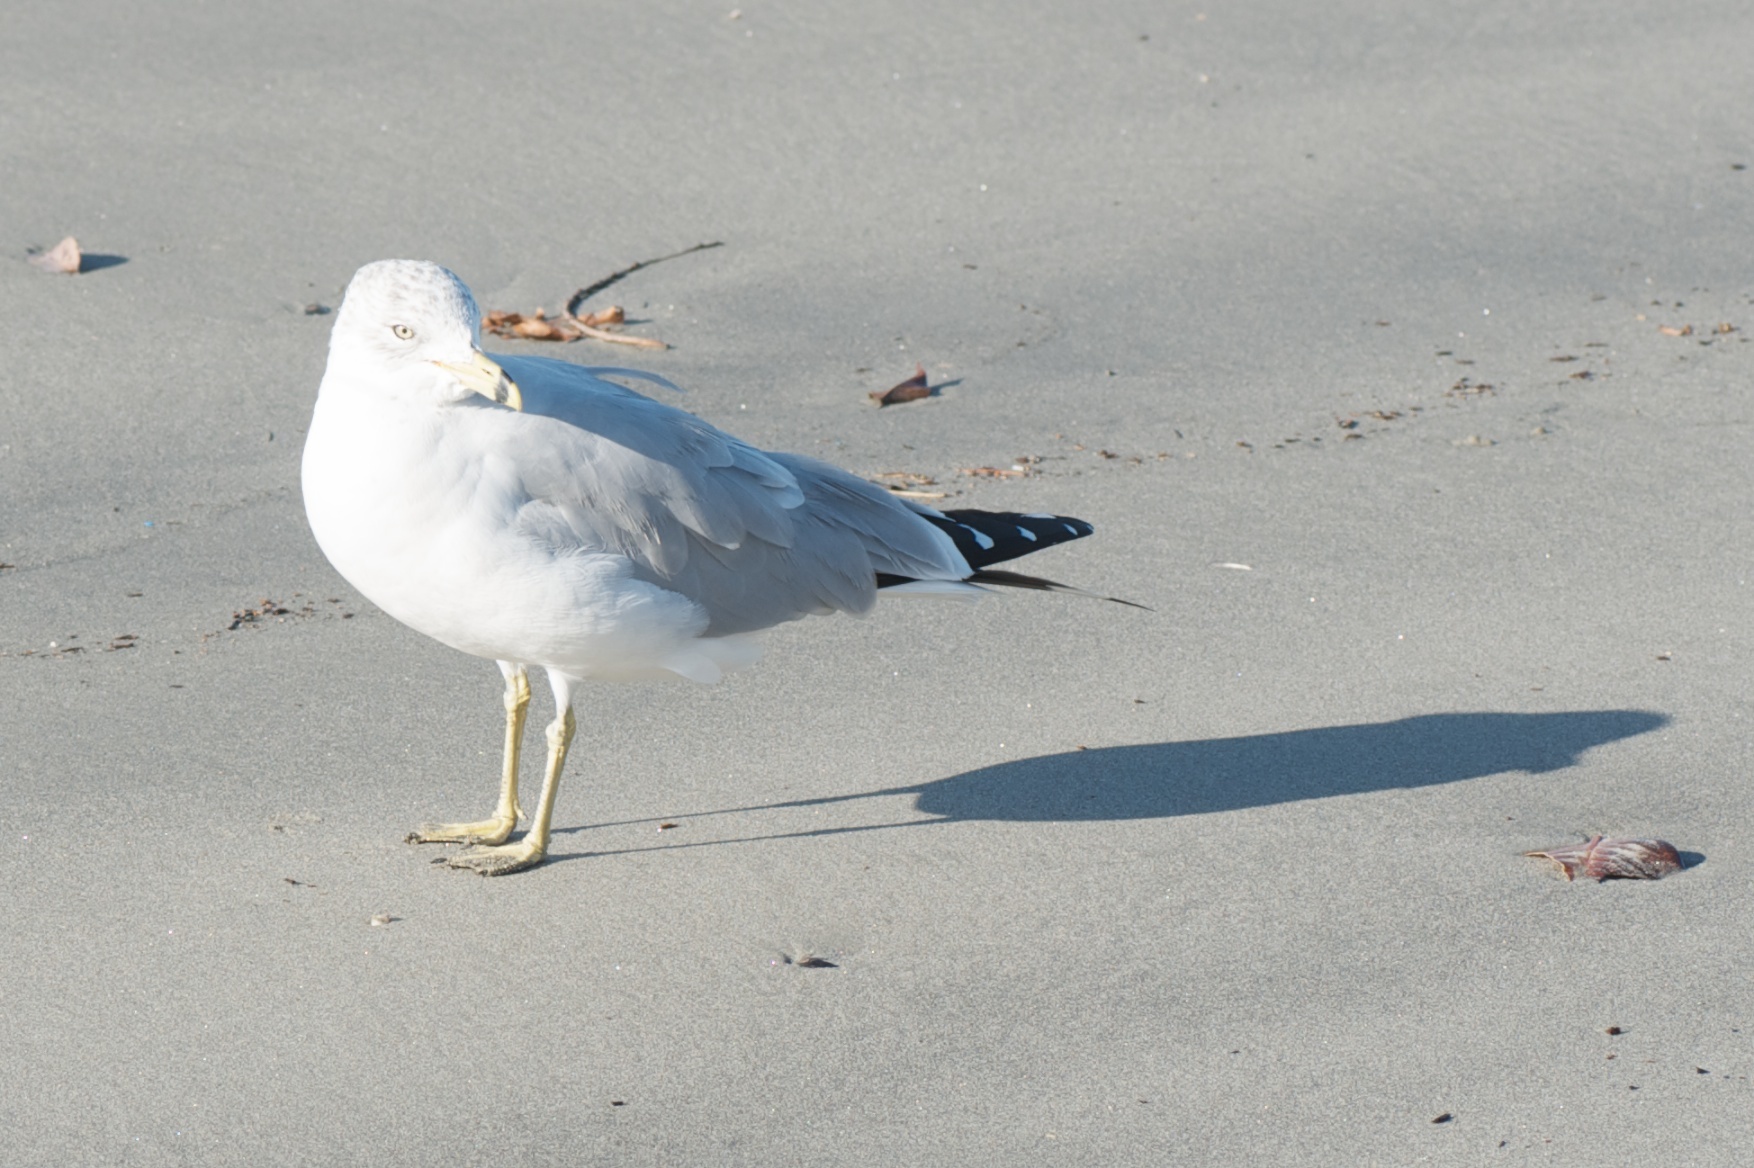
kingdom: Animalia
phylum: Chordata
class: Aves
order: Charadriiformes
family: Laridae
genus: Larus
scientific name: Larus delawarensis
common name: Ring-billed gull
